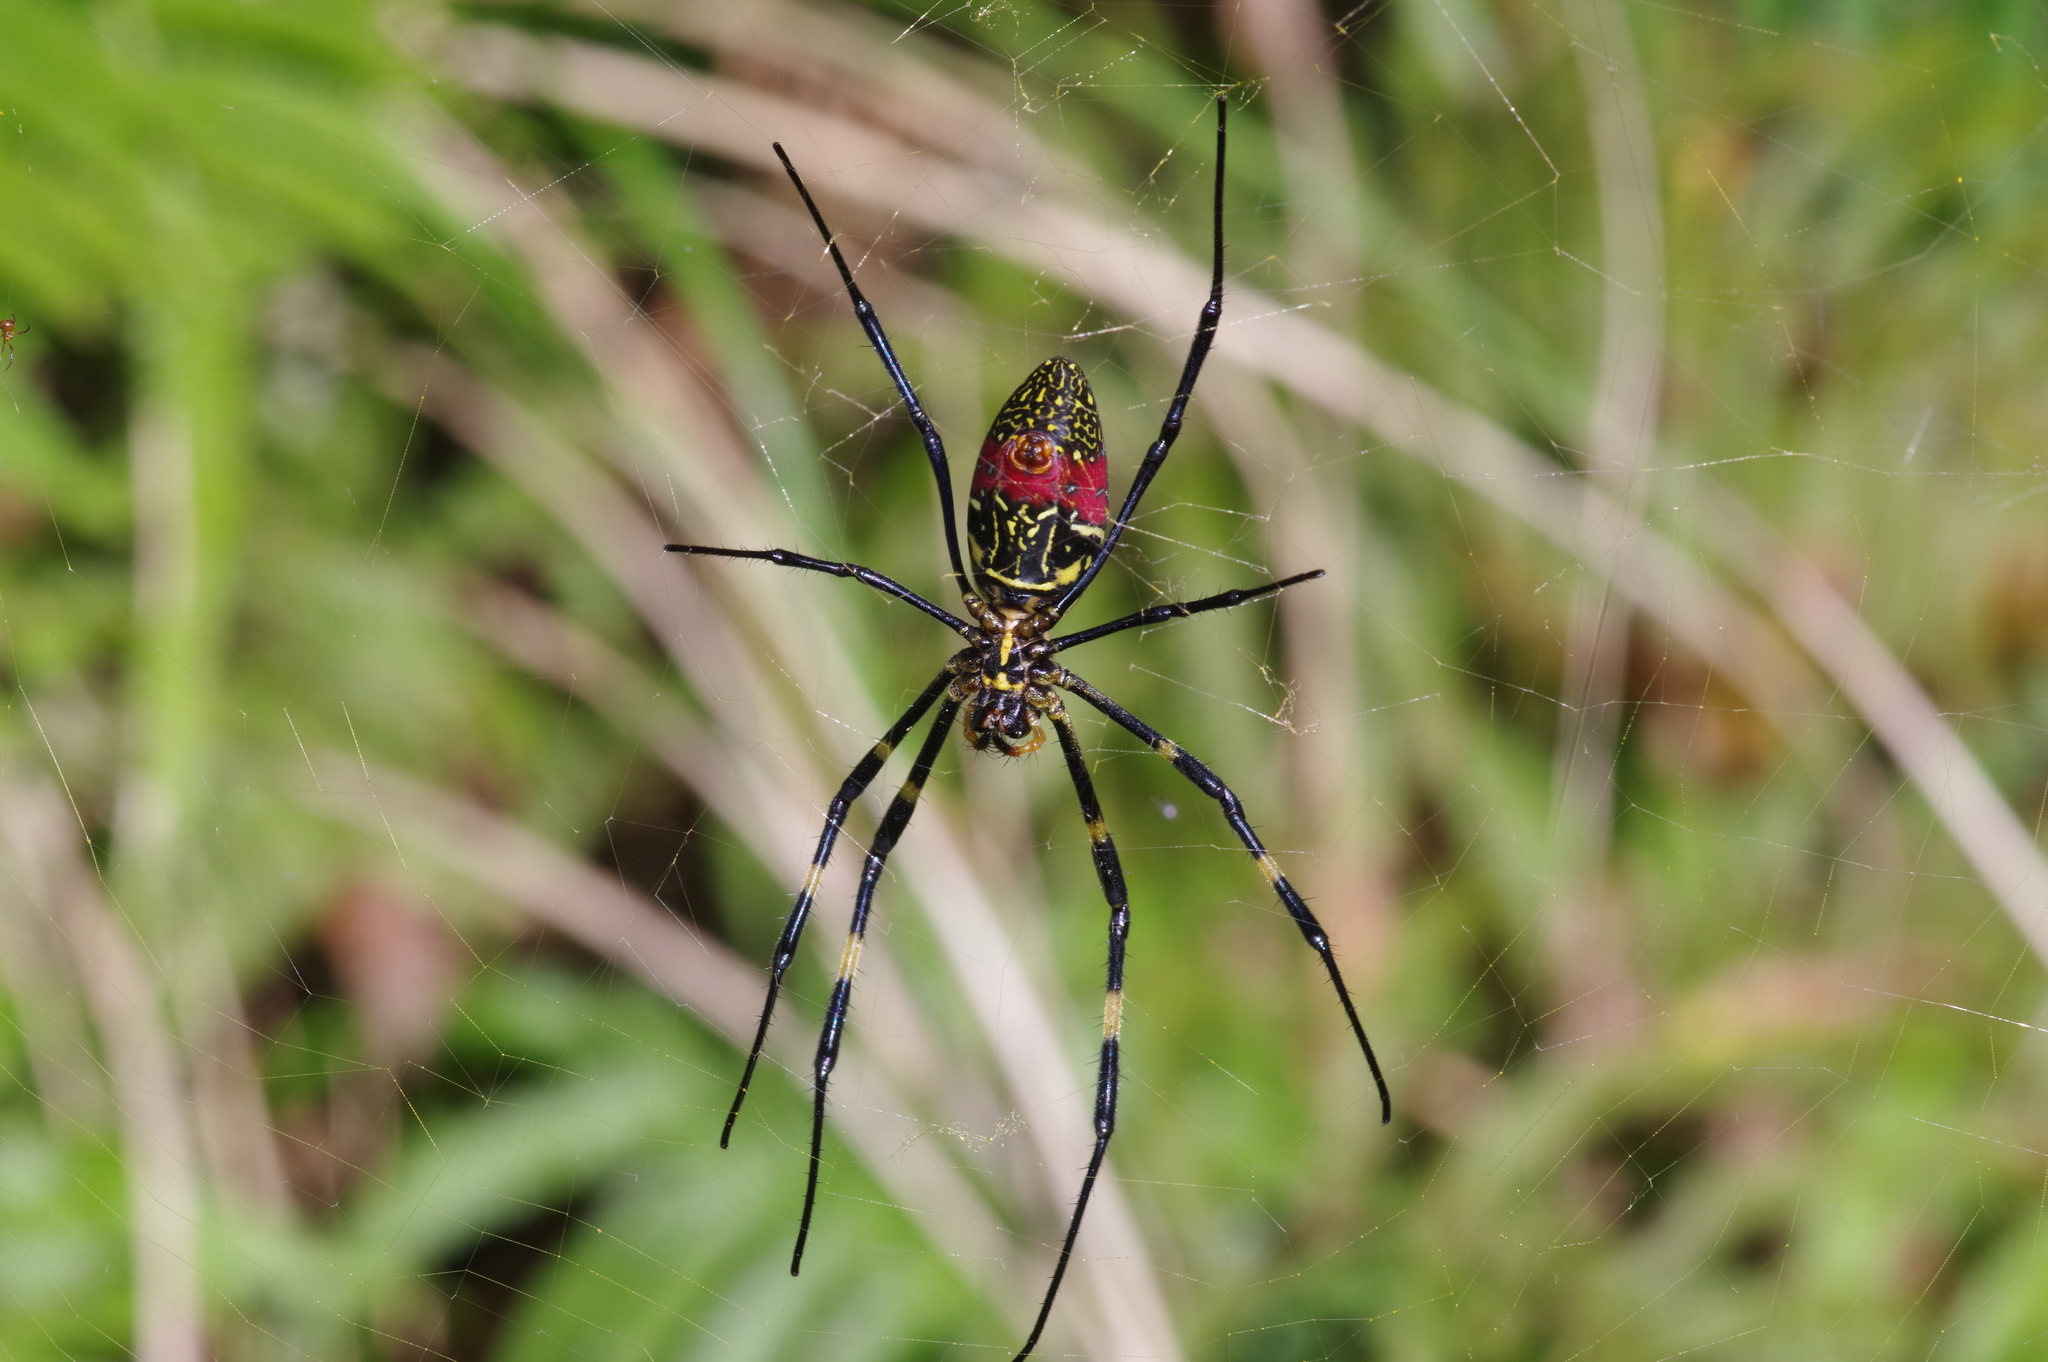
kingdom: Animalia
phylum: Arthropoda
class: Arachnida
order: Araneae
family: Araneidae
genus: Trichonephila
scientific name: Trichonephila clavata
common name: Jorō spider
